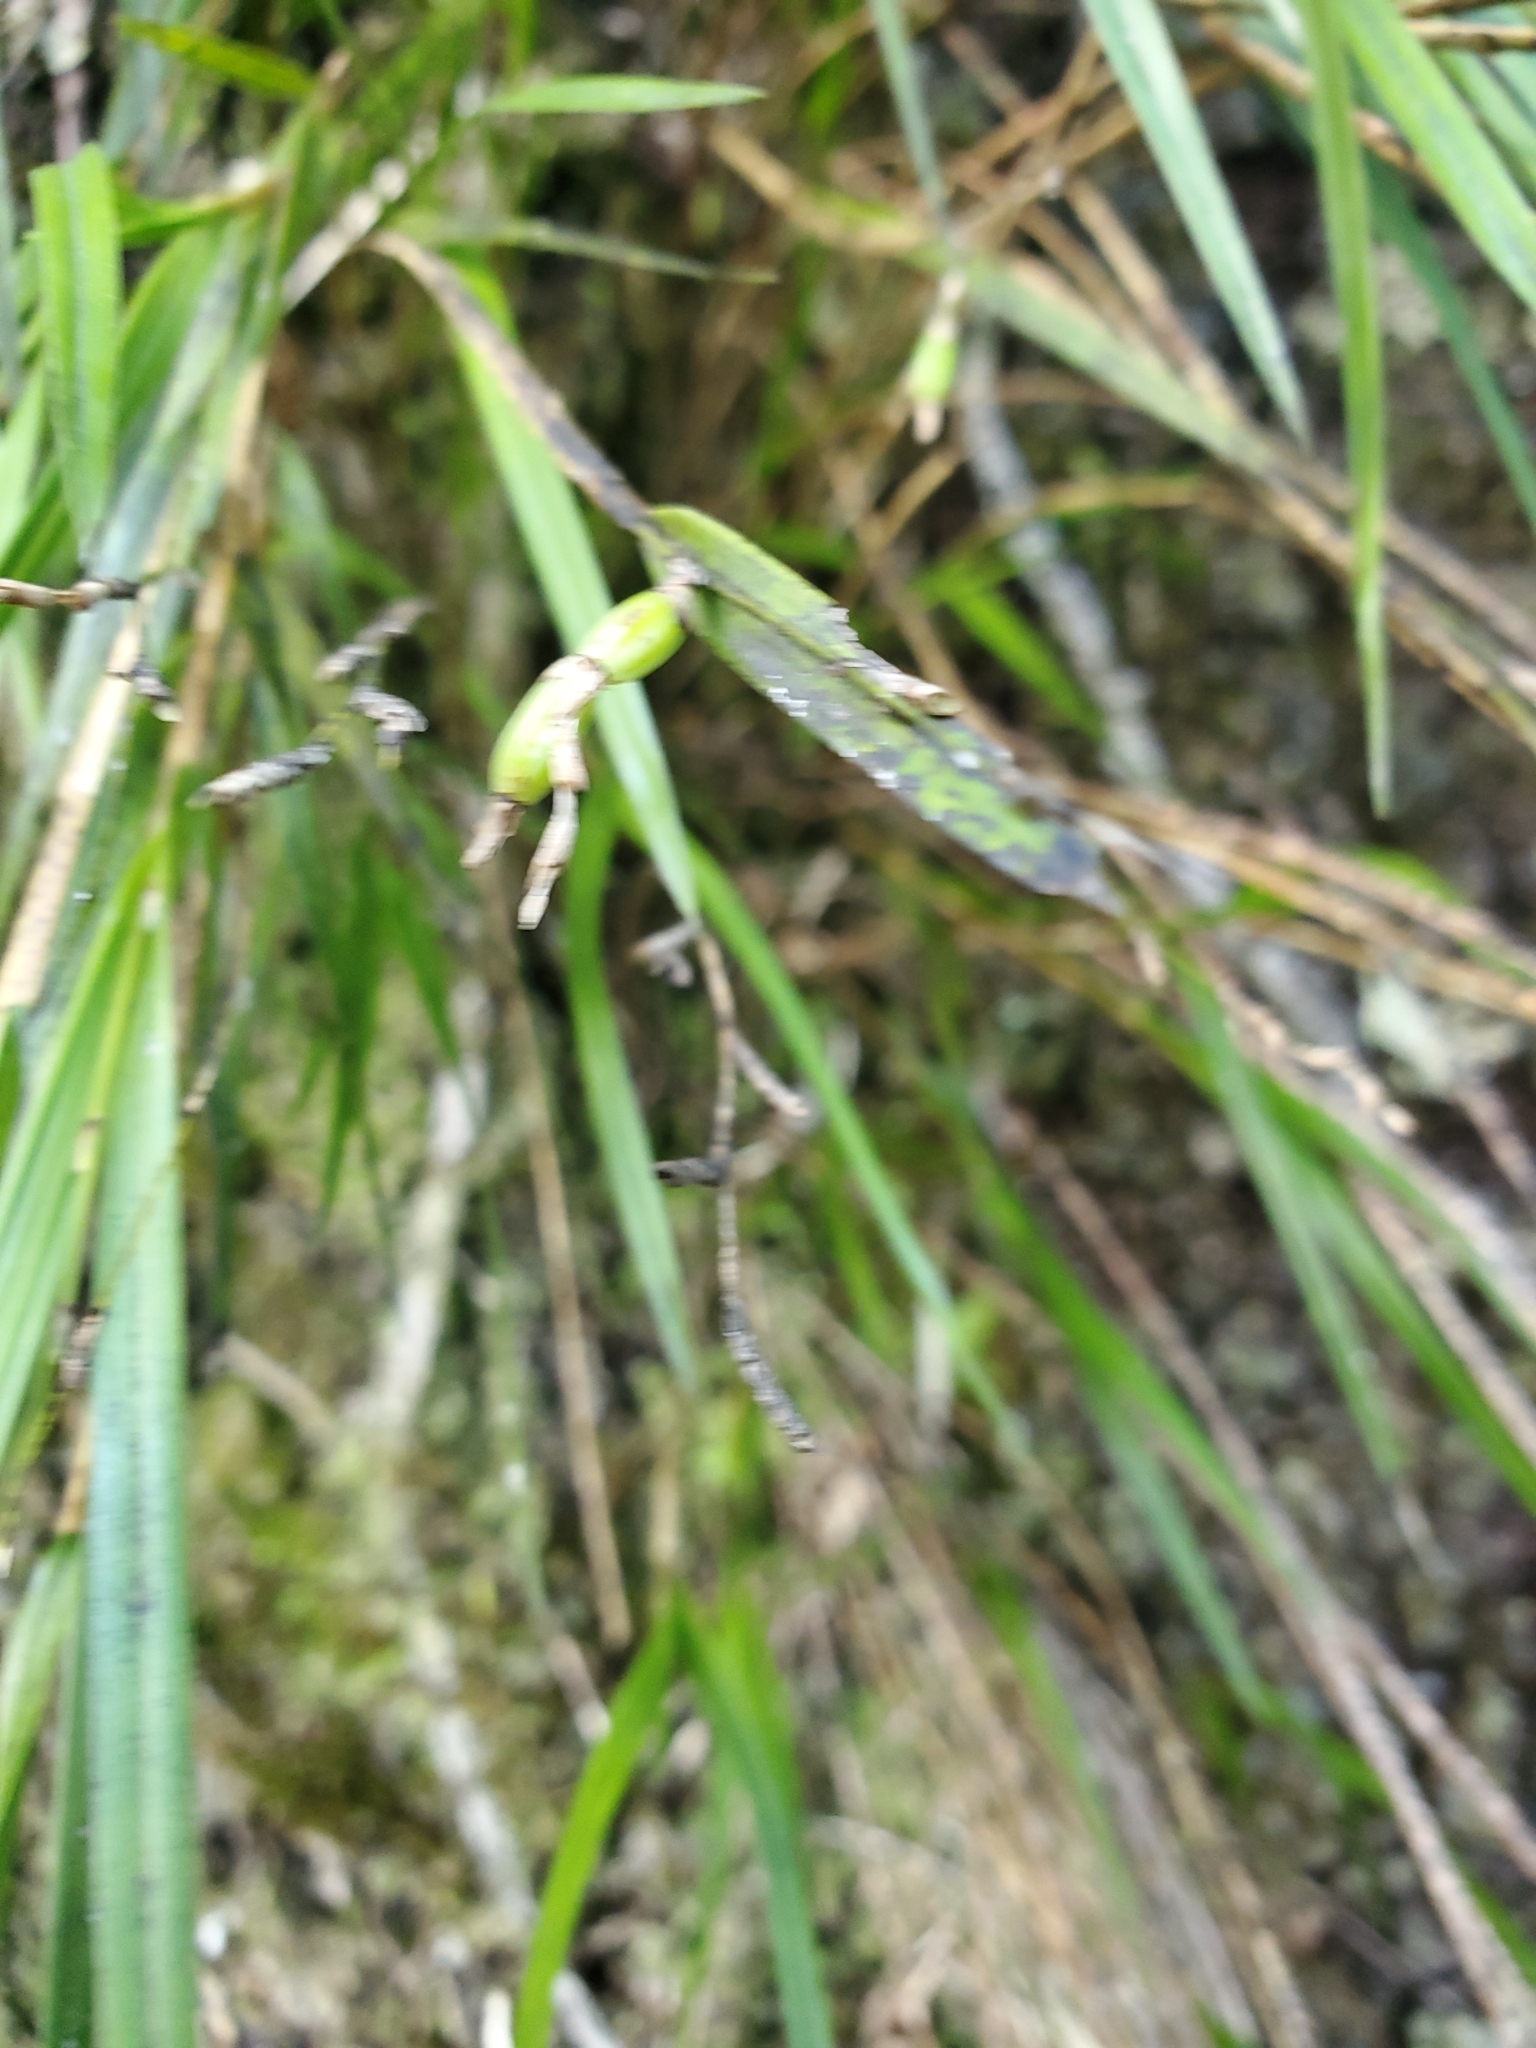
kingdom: Plantae
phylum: Tracheophyta
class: Liliopsida
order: Asparagales
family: Orchidaceae
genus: Earina
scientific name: Earina mucronata
